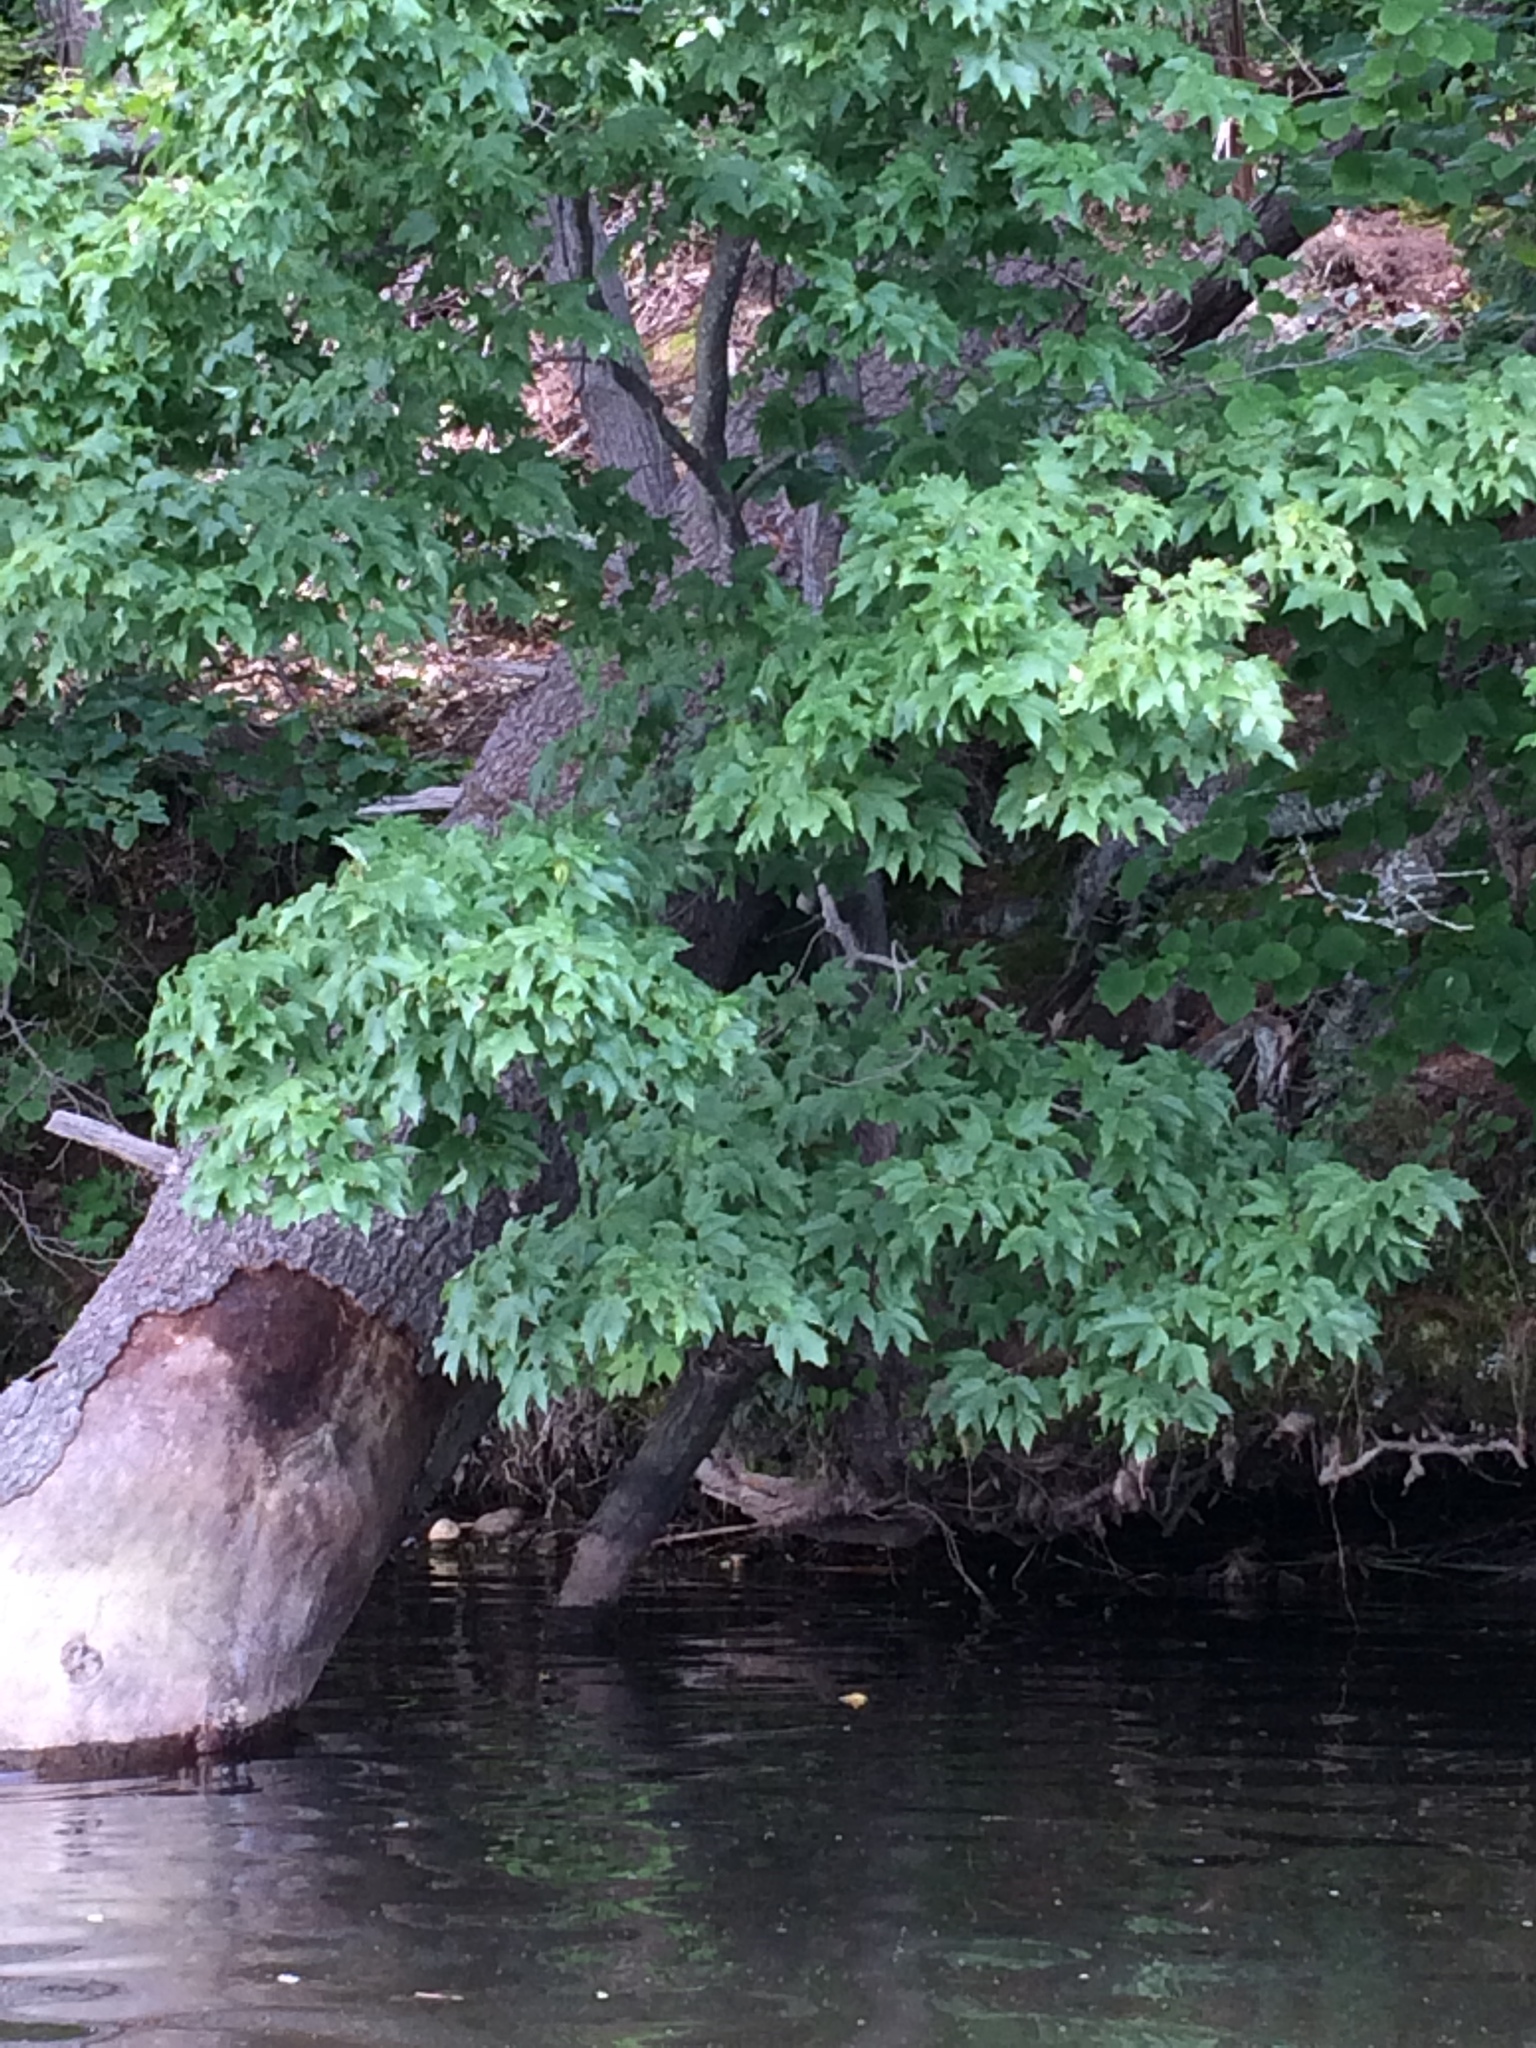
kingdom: Plantae
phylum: Tracheophyta
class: Magnoliopsida
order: Sapindales
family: Sapindaceae
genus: Acer
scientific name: Acer rubrum
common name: Red maple
